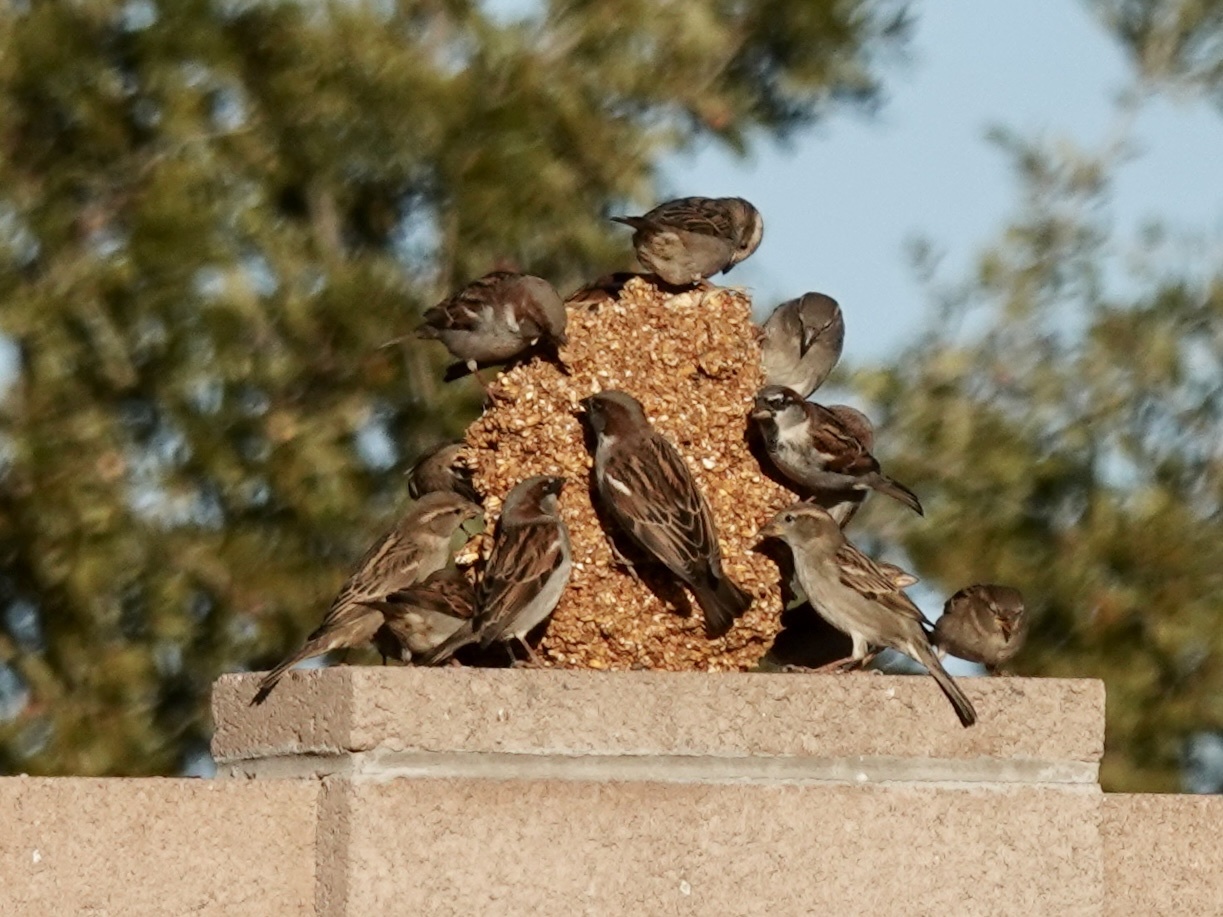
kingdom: Animalia
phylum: Chordata
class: Aves
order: Passeriformes
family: Passeridae
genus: Passer
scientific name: Passer domesticus
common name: House sparrow
